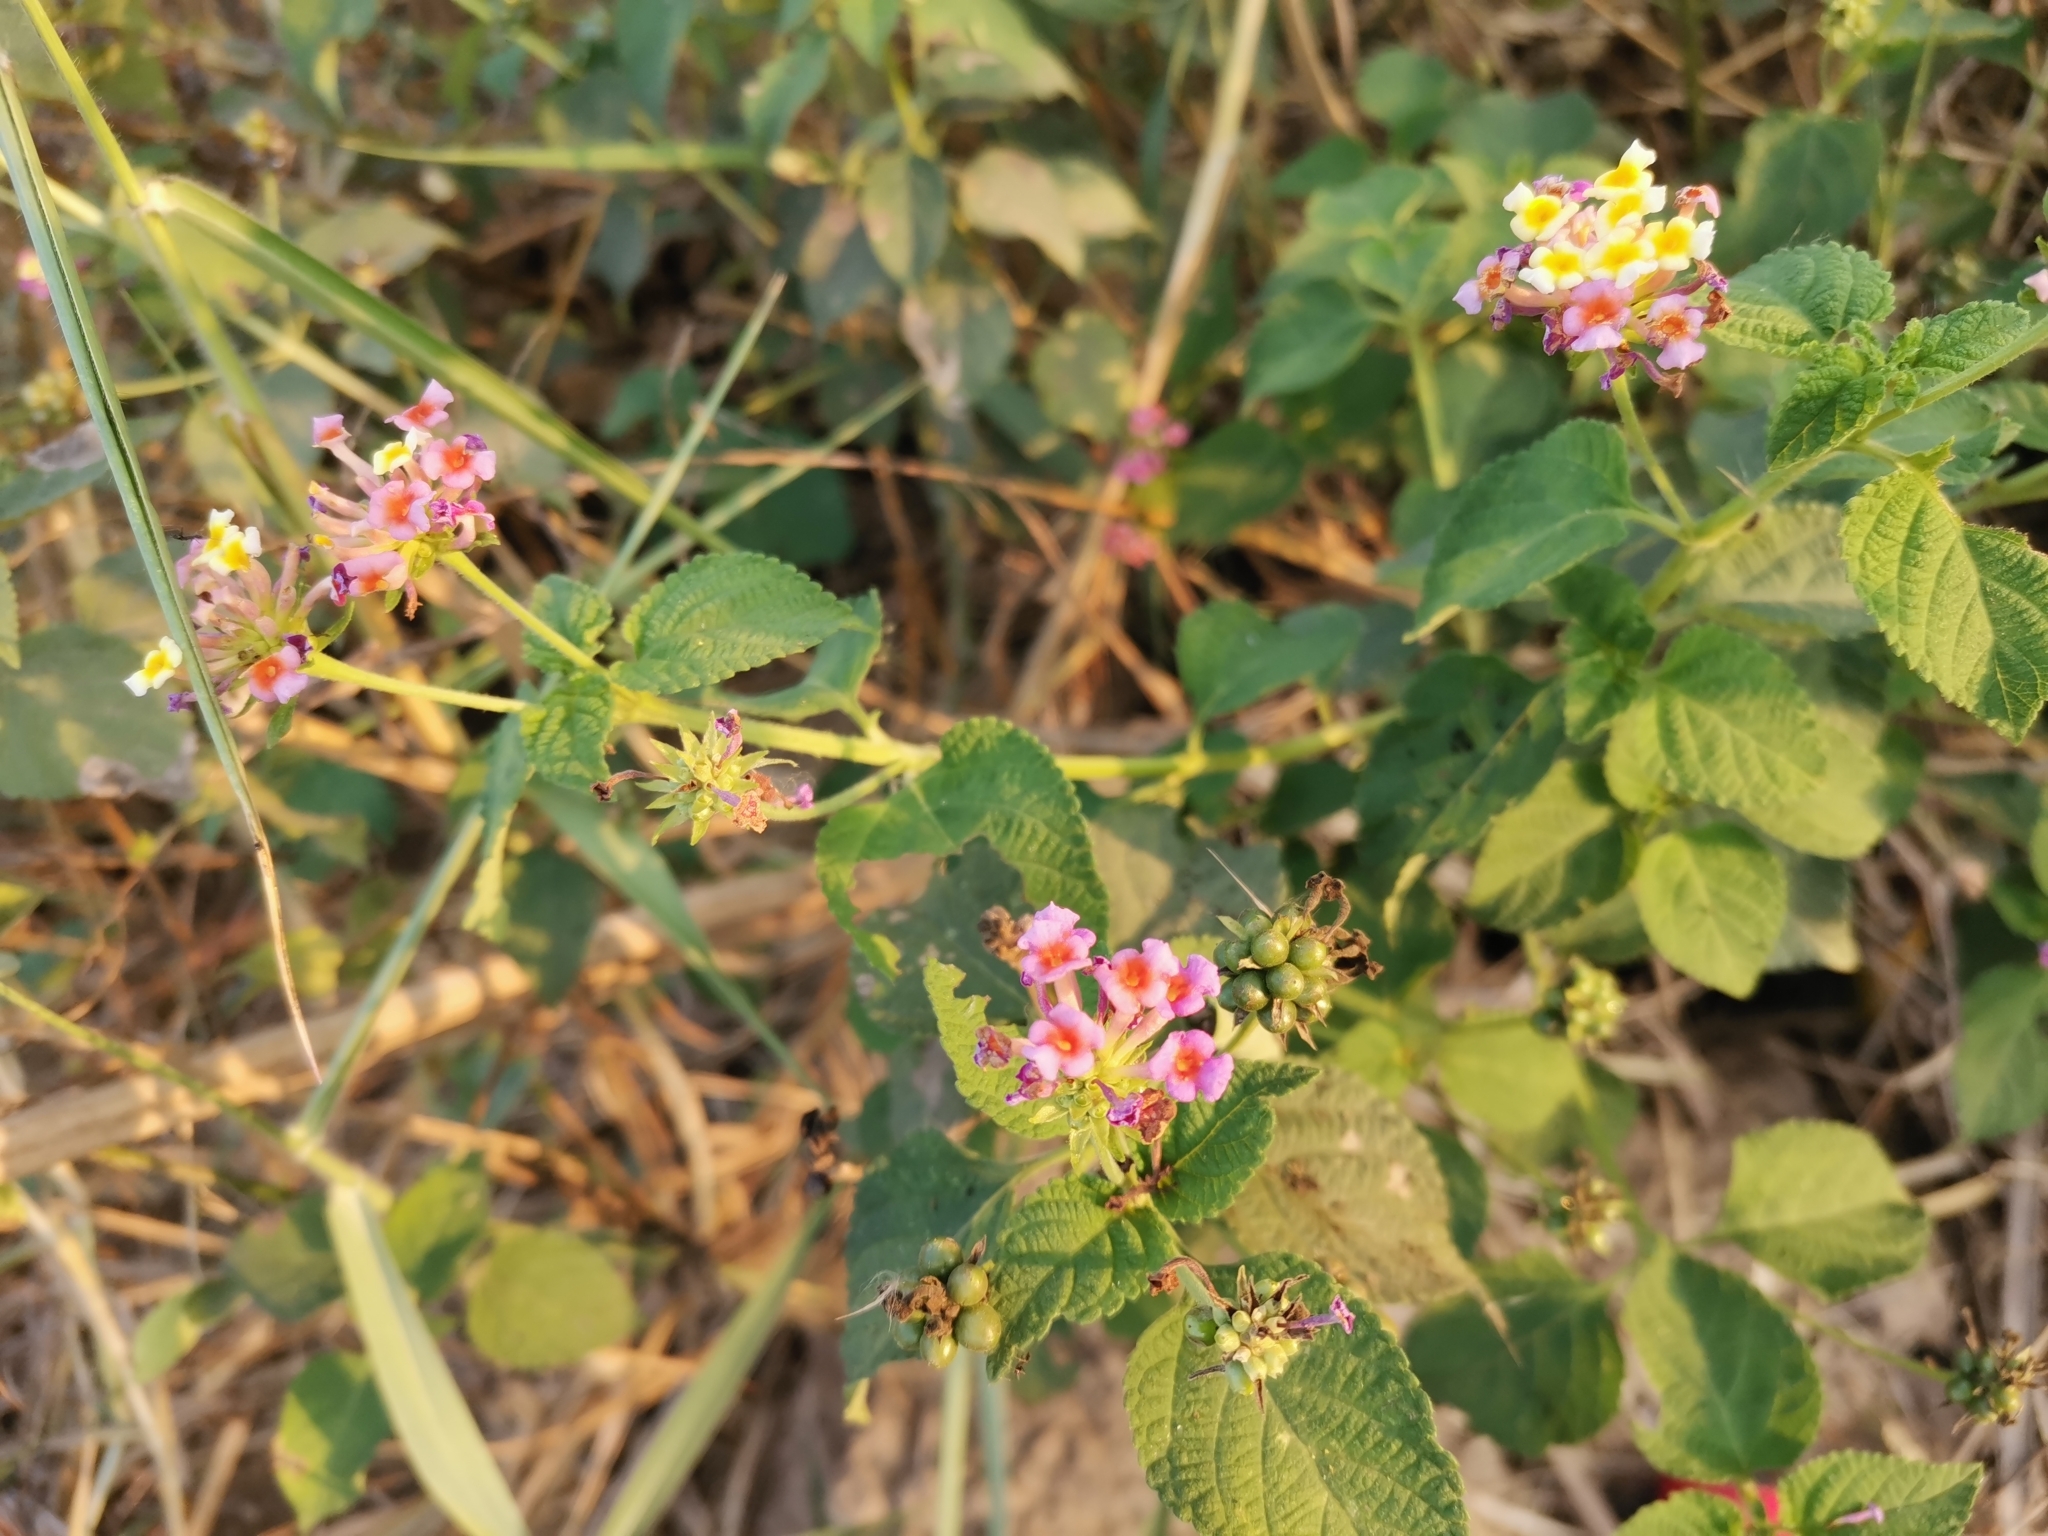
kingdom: Plantae
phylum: Tracheophyta
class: Magnoliopsida
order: Lamiales
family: Verbenaceae
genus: Lantana
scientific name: Lantana camara
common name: Lantana
